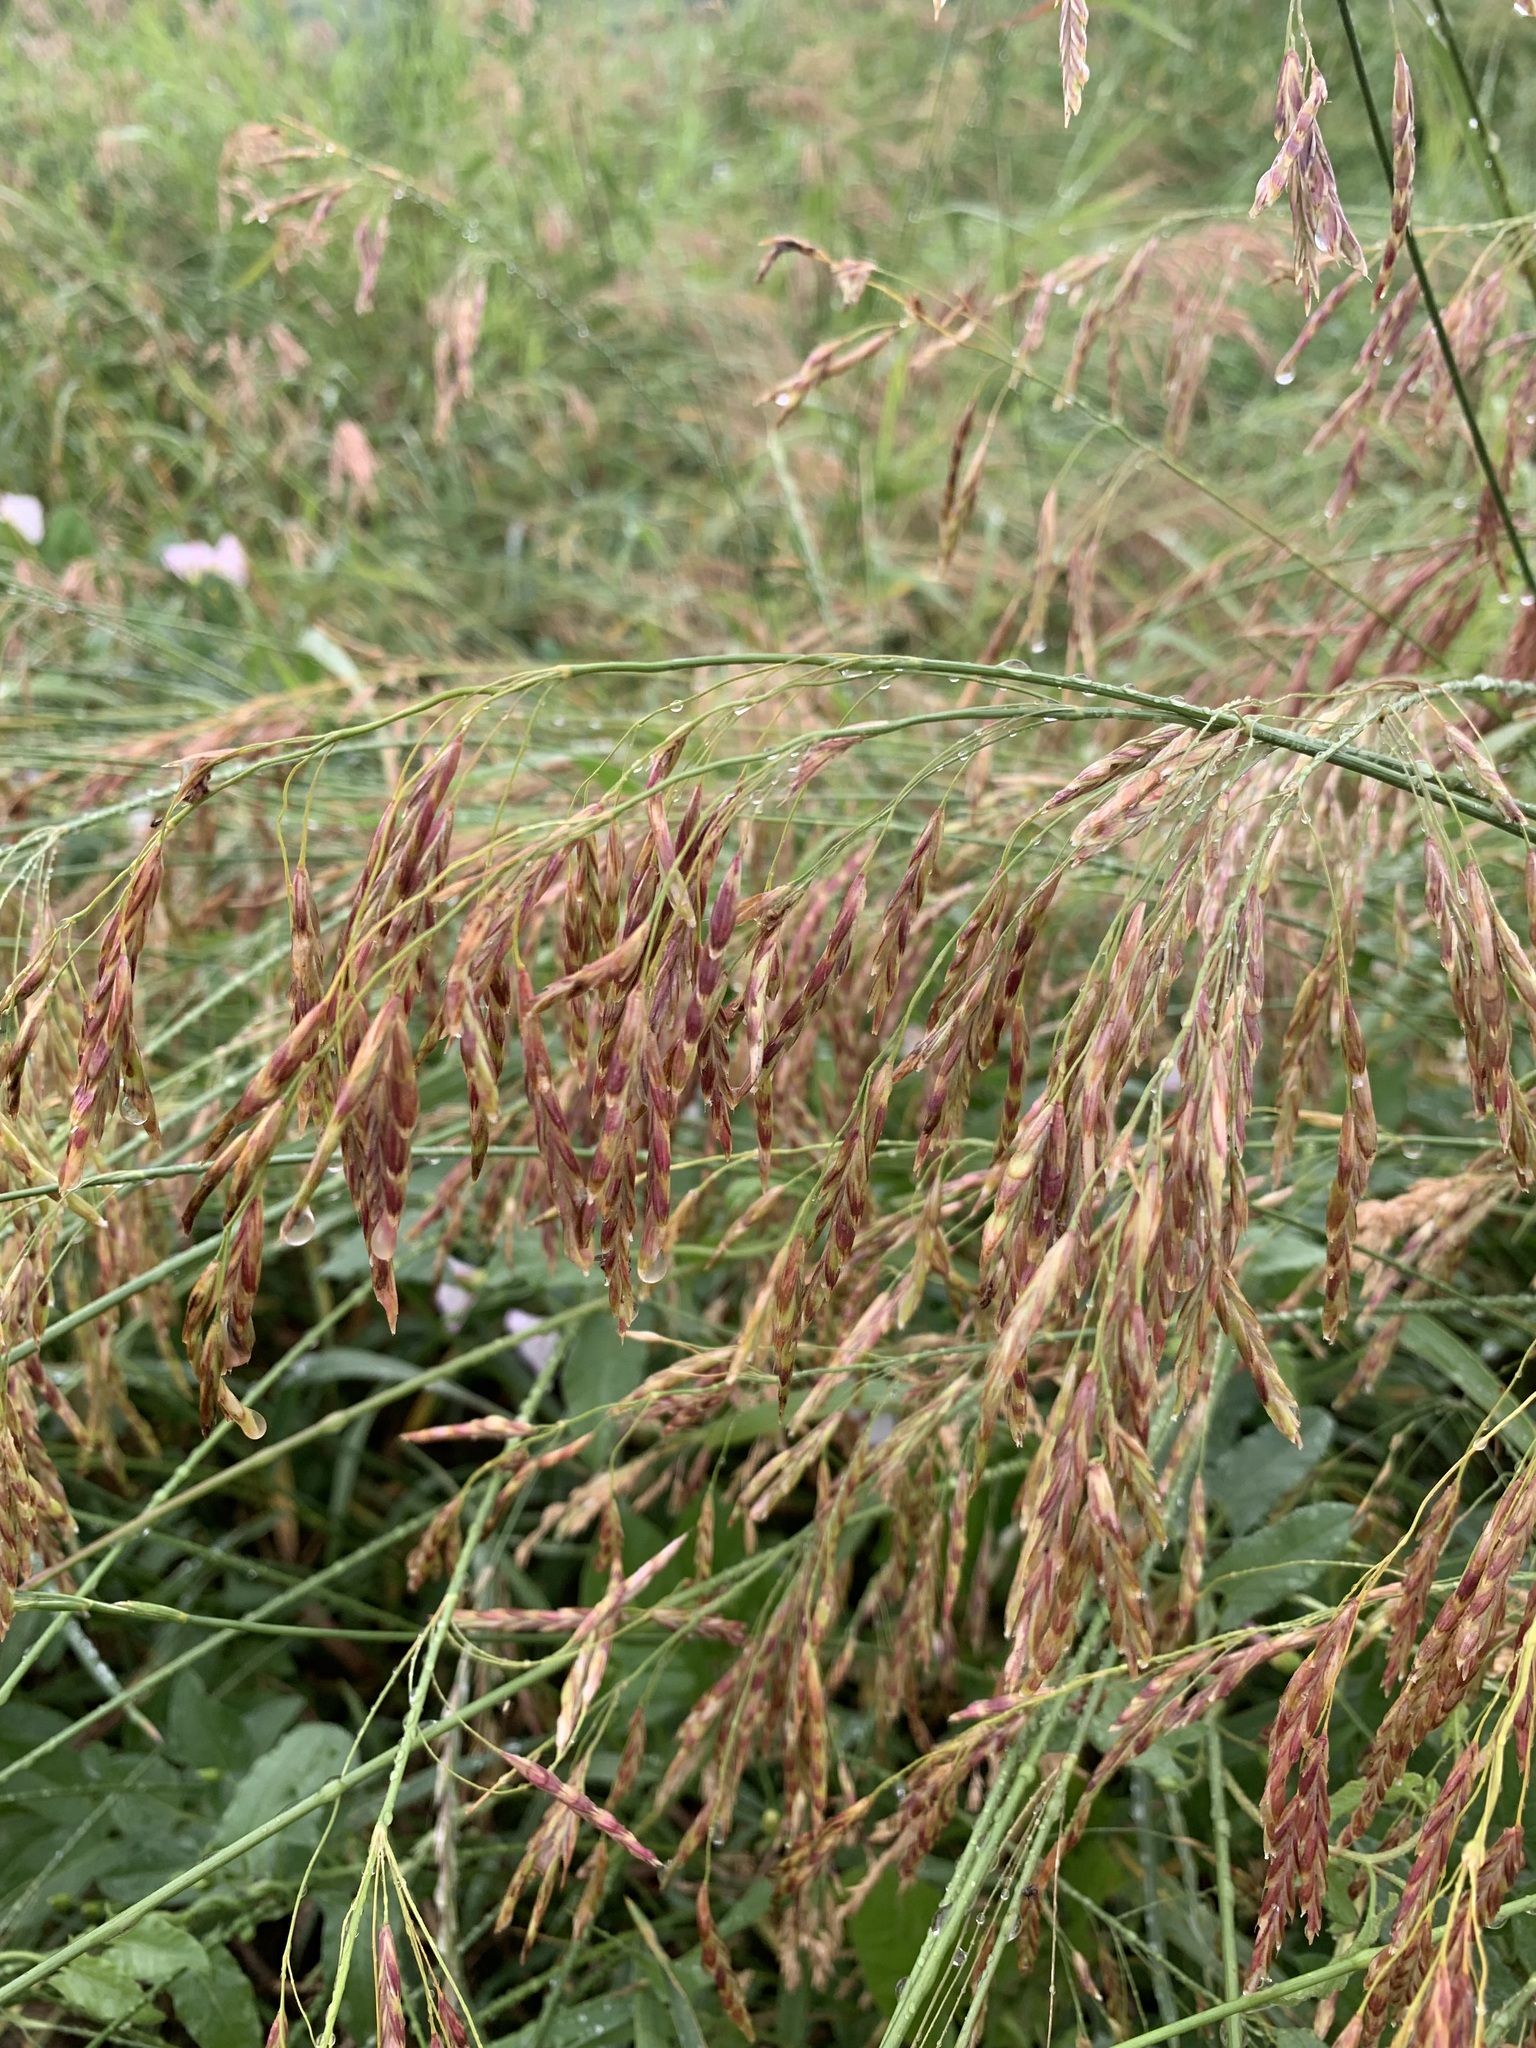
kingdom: Plantae
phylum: Tracheophyta
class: Liliopsida
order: Poales
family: Poaceae
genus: Bromus
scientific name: Bromus inermis
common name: Smooth brome
